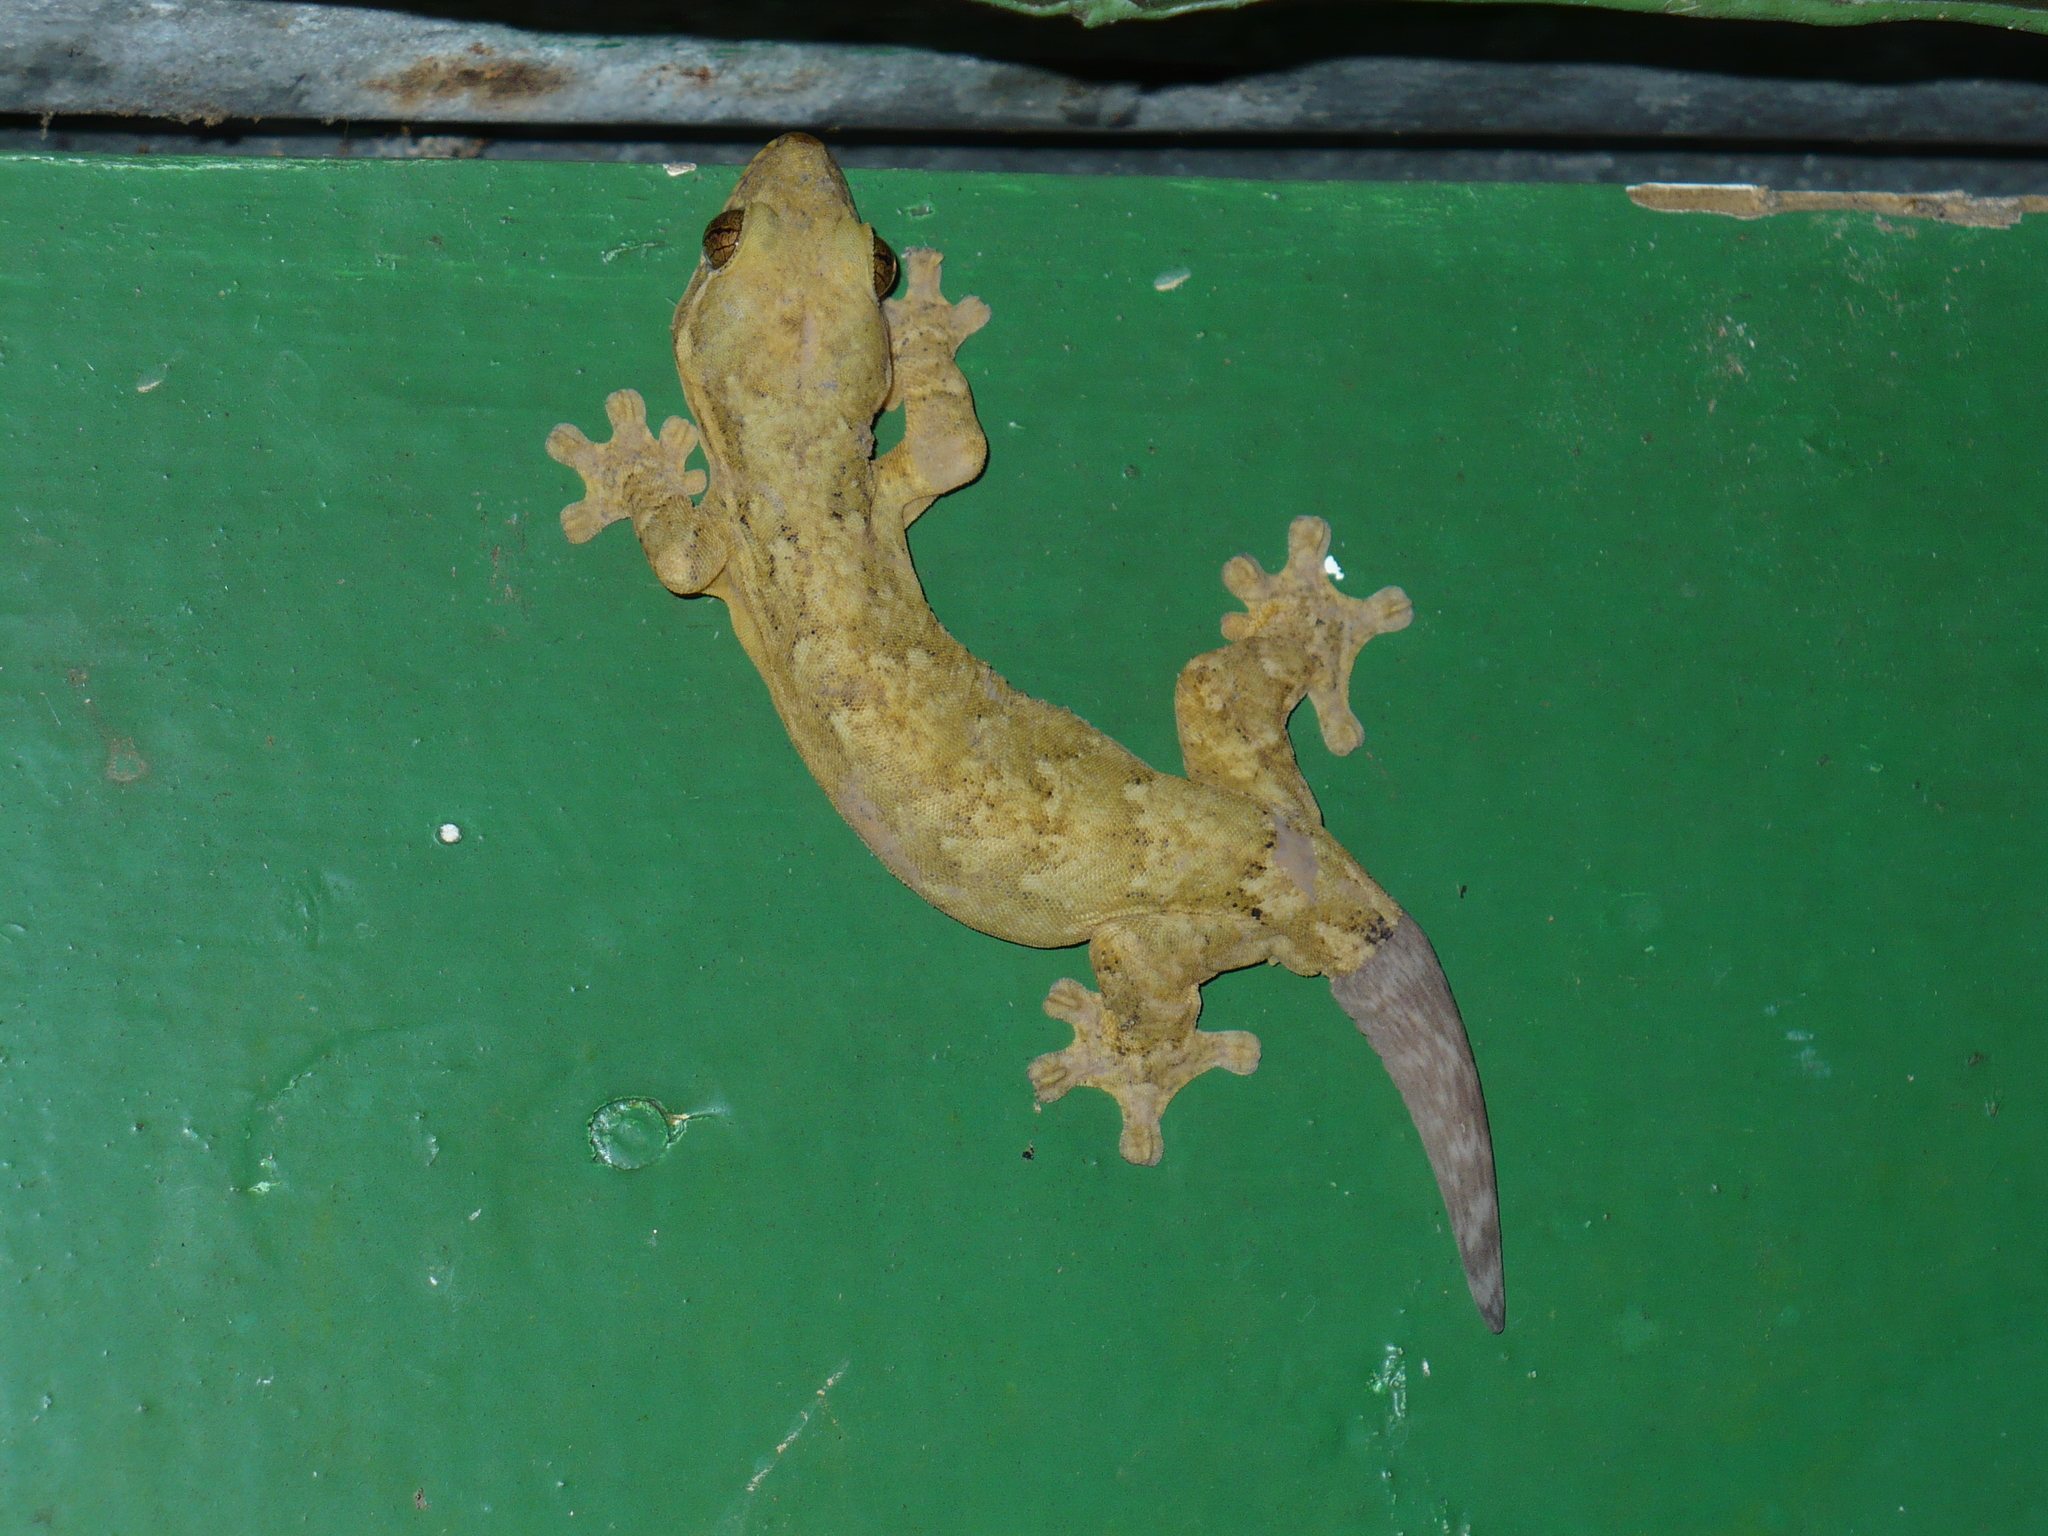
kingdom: Animalia
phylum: Chordata
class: Squamata
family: Phyllodactylidae
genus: Thecadactylus
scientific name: Thecadactylus rapicauda
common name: Turnip-tailed gecko
